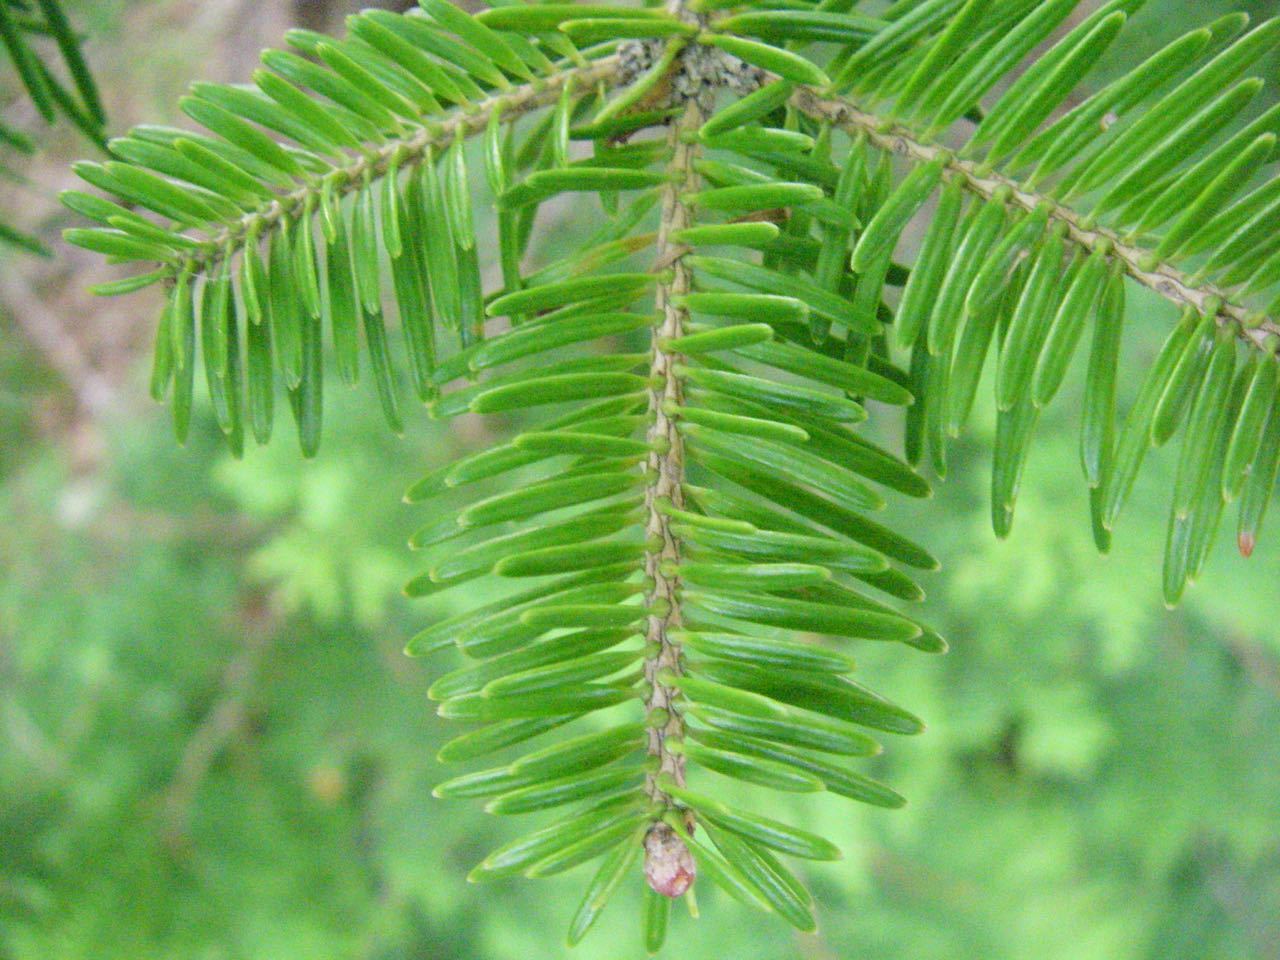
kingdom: Plantae
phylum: Tracheophyta
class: Pinopsida
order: Pinales
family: Pinaceae
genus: Abies
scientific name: Abies homolepis
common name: Nikko fir
